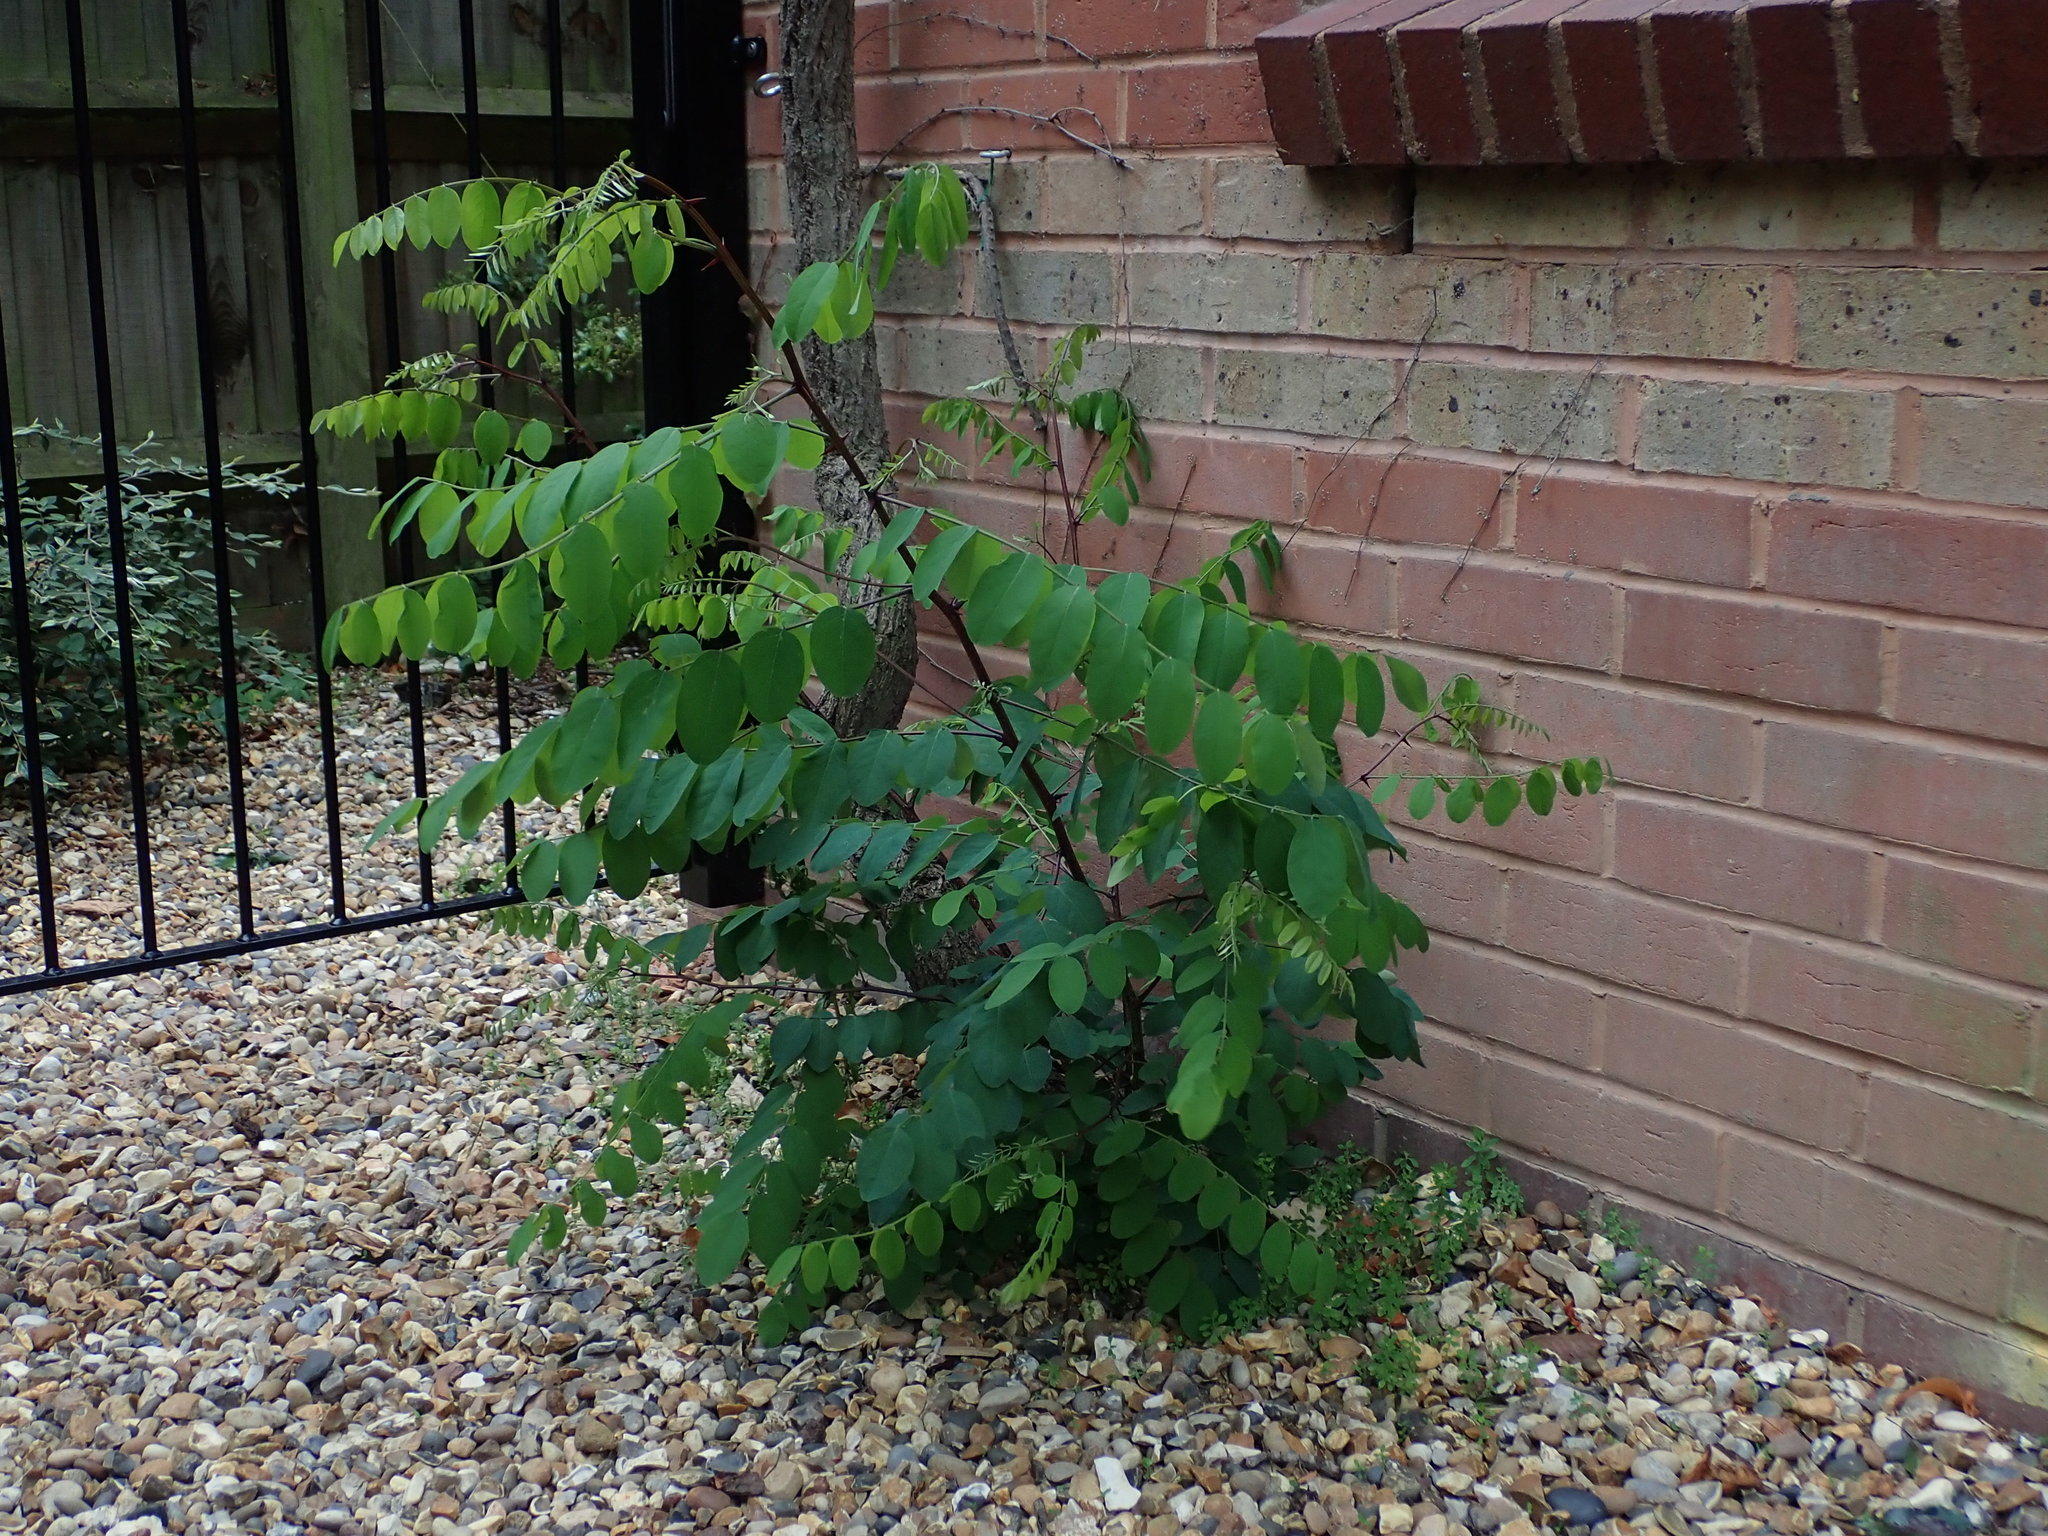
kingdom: Plantae
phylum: Tracheophyta
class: Magnoliopsida
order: Fabales
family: Fabaceae
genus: Robinia
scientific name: Robinia pseudoacacia
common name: Black locust
